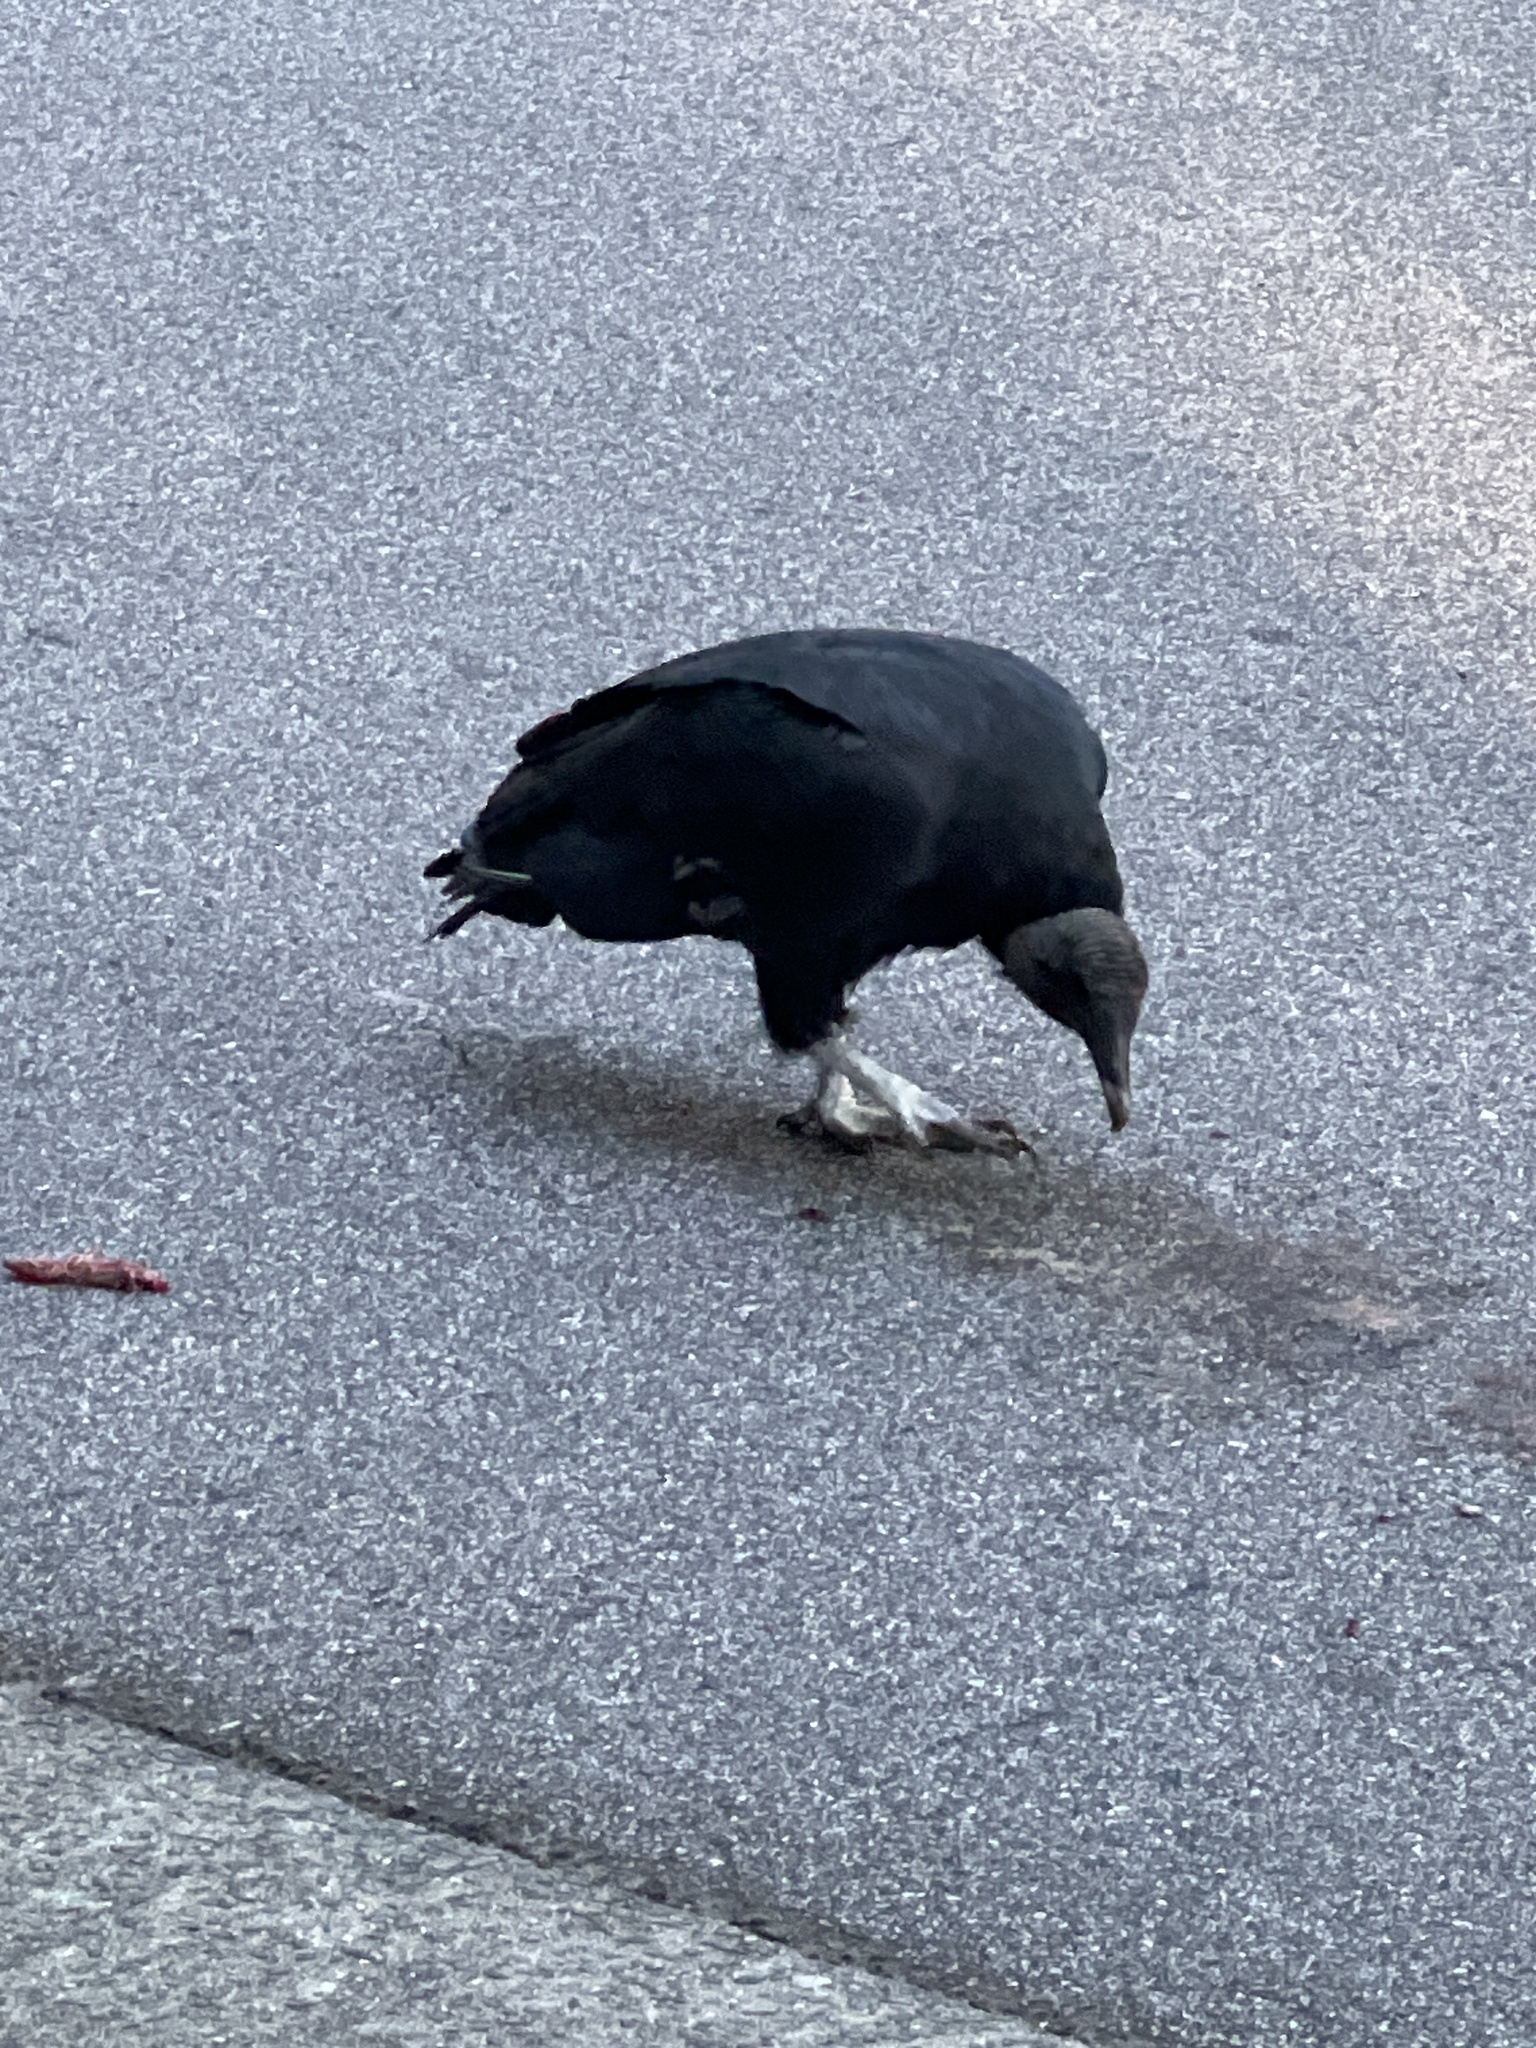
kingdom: Animalia
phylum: Chordata
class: Aves
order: Accipitriformes
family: Cathartidae
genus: Coragyps
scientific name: Coragyps atratus
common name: Black vulture
